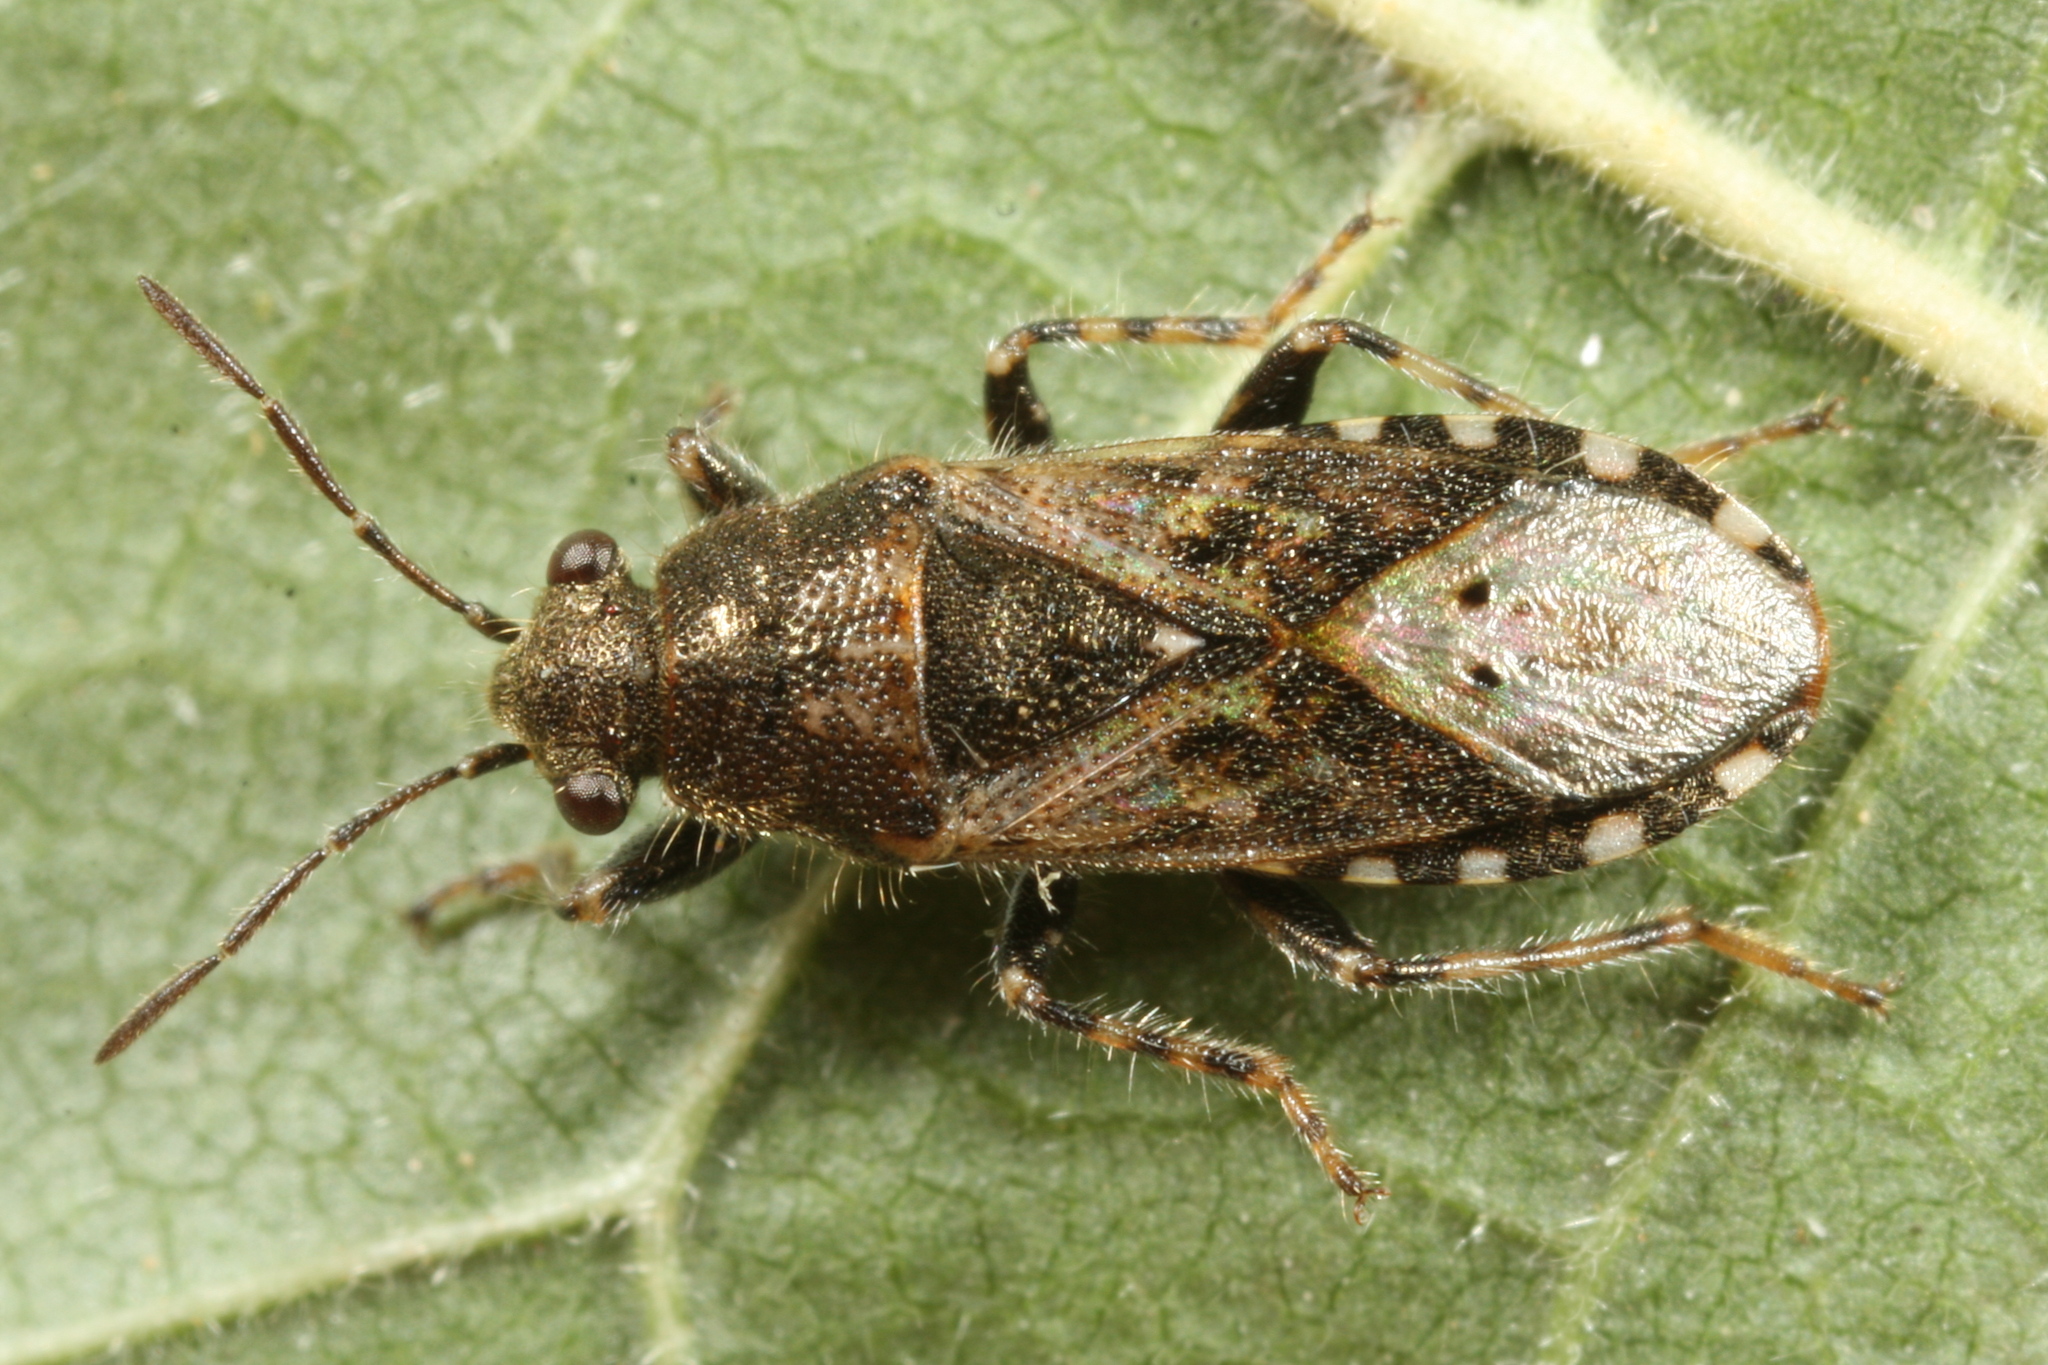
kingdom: Animalia
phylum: Arthropoda
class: Insecta
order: Hemiptera
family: Heterogastridae
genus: Heterogaster
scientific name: Heterogaster urticae
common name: Seed bug
